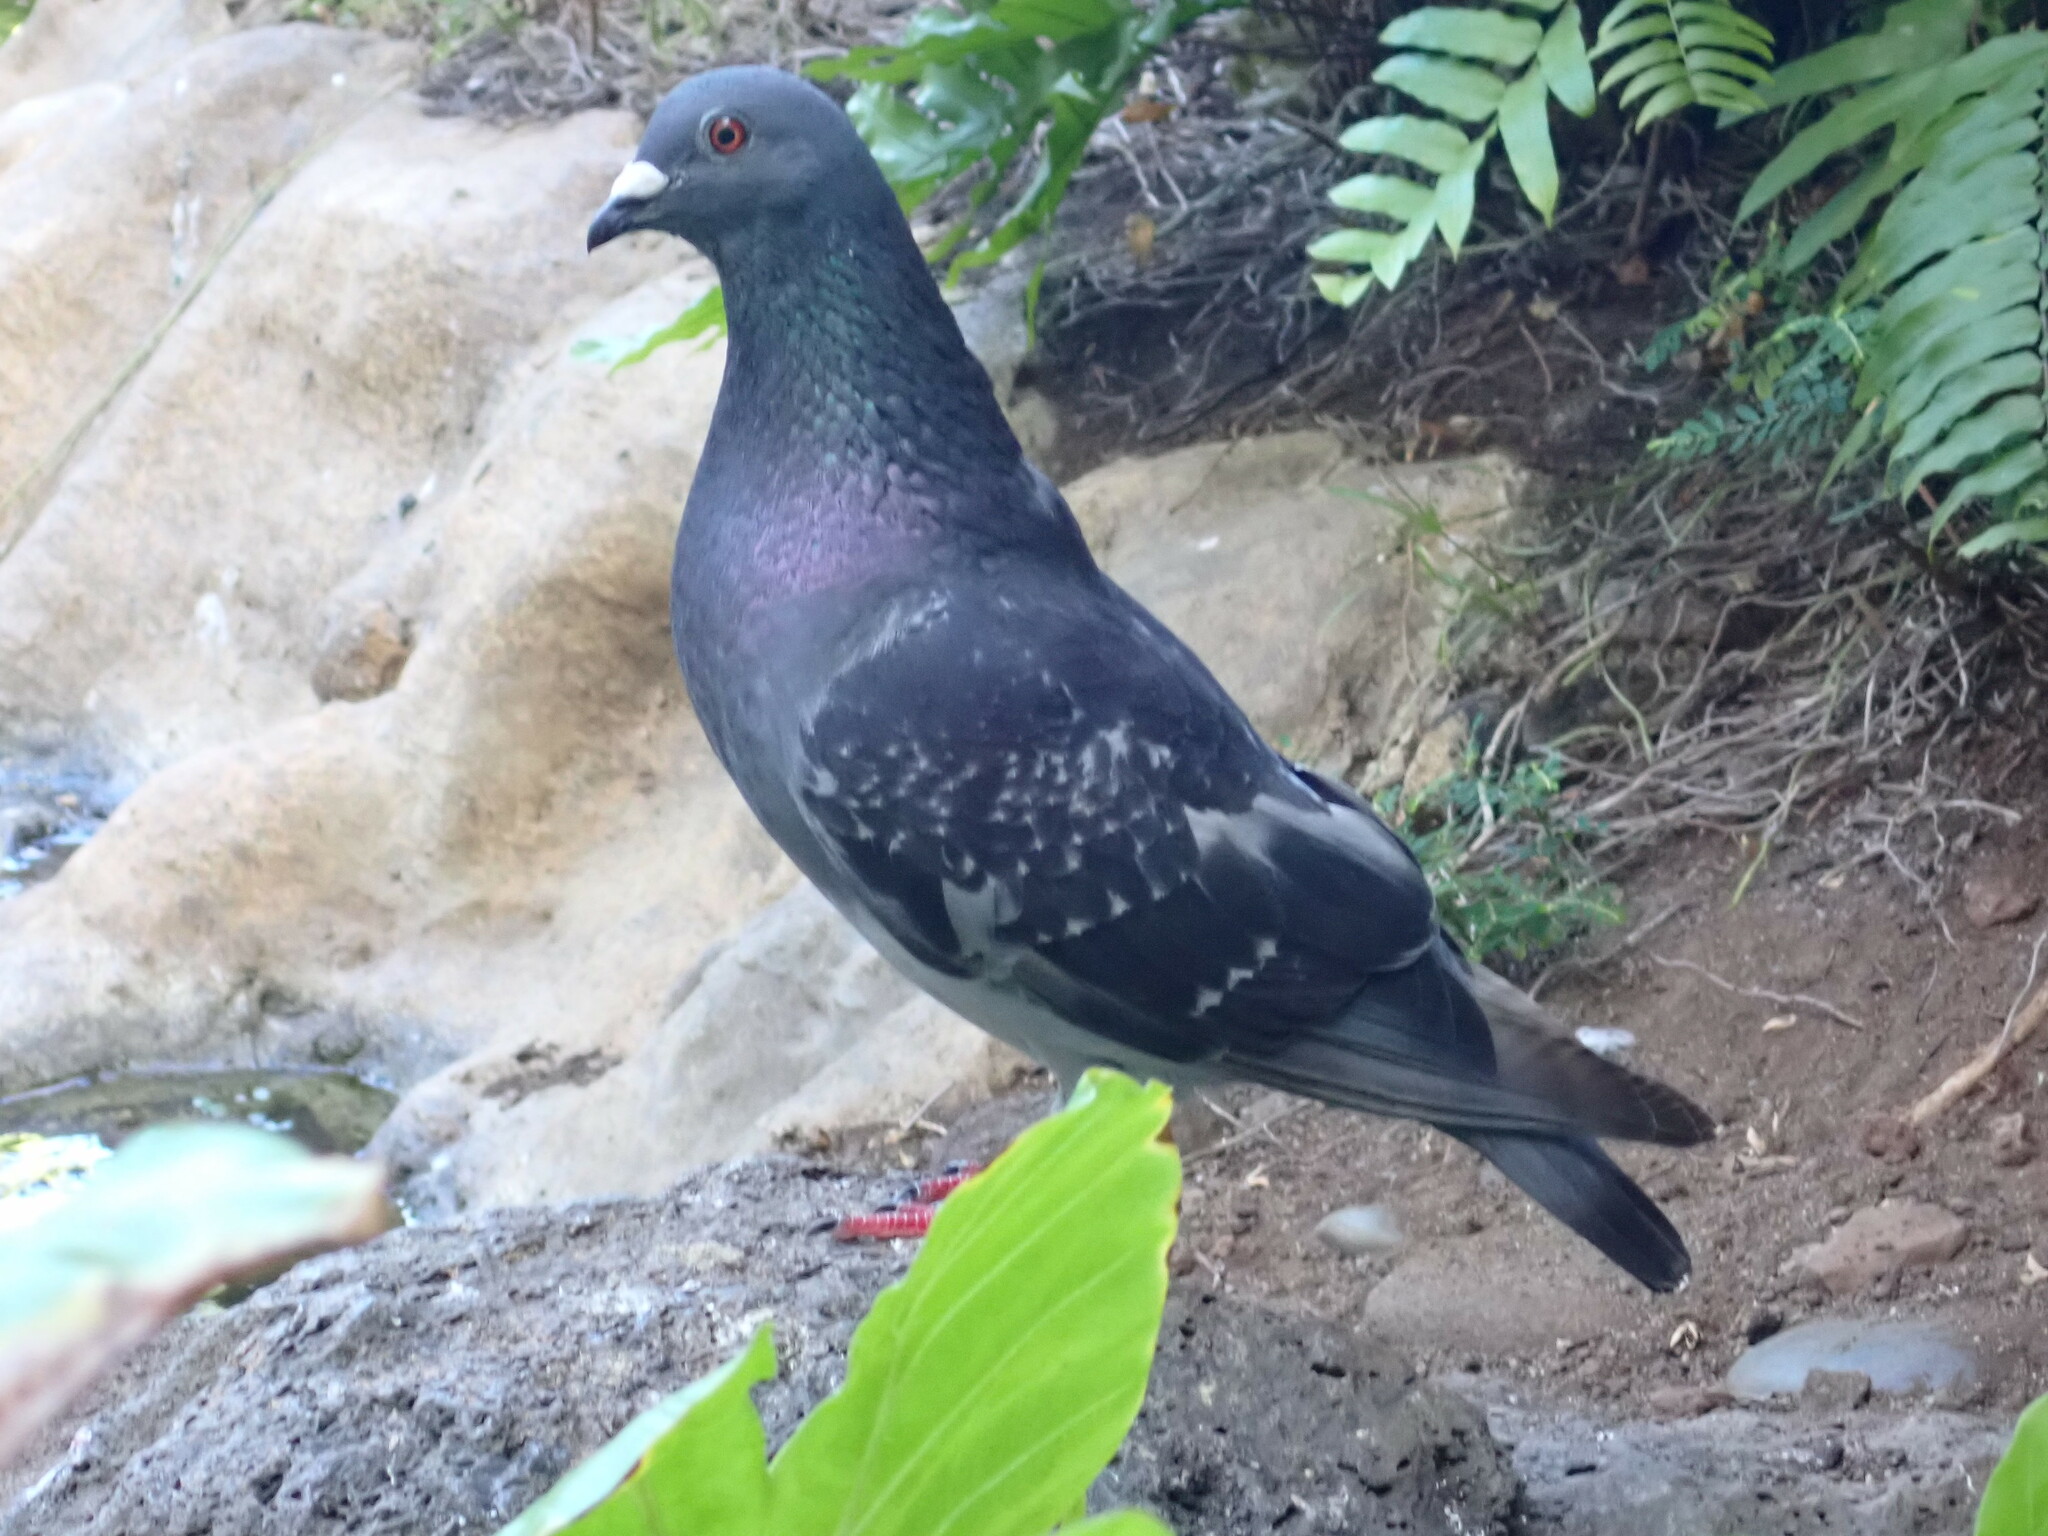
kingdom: Animalia
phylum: Chordata
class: Aves
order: Columbiformes
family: Columbidae
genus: Columba
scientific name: Columba livia
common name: Rock pigeon
